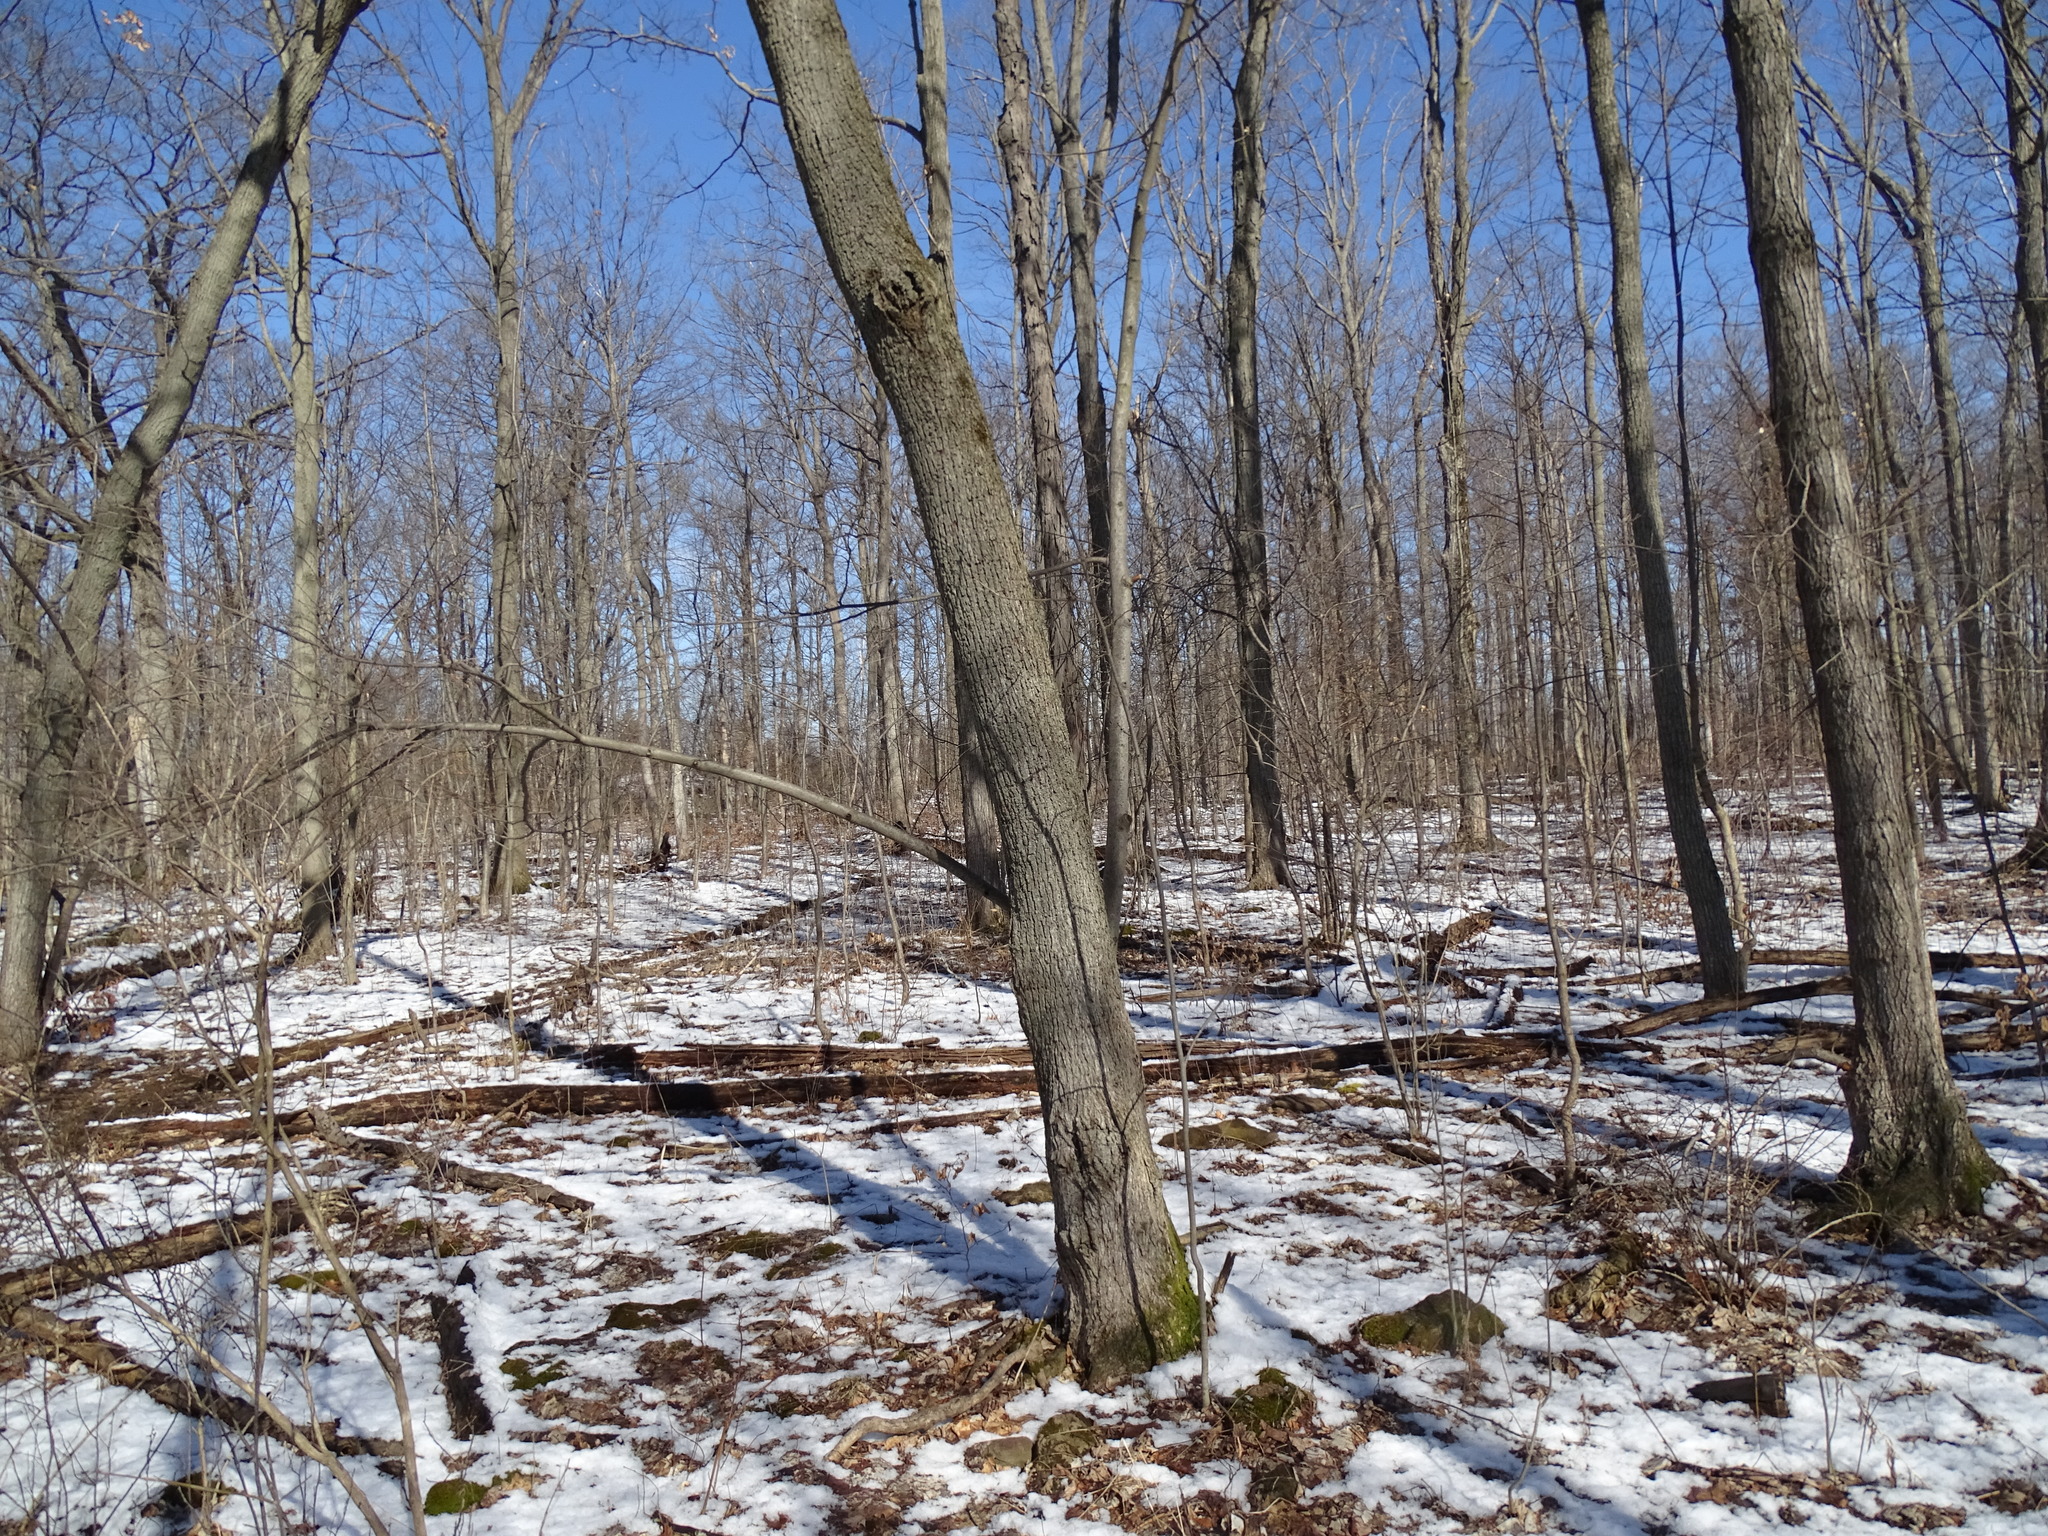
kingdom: Plantae
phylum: Tracheophyta
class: Magnoliopsida
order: Malvales
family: Malvaceae
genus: Tilia
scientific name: Tilia americana
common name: Basswood
